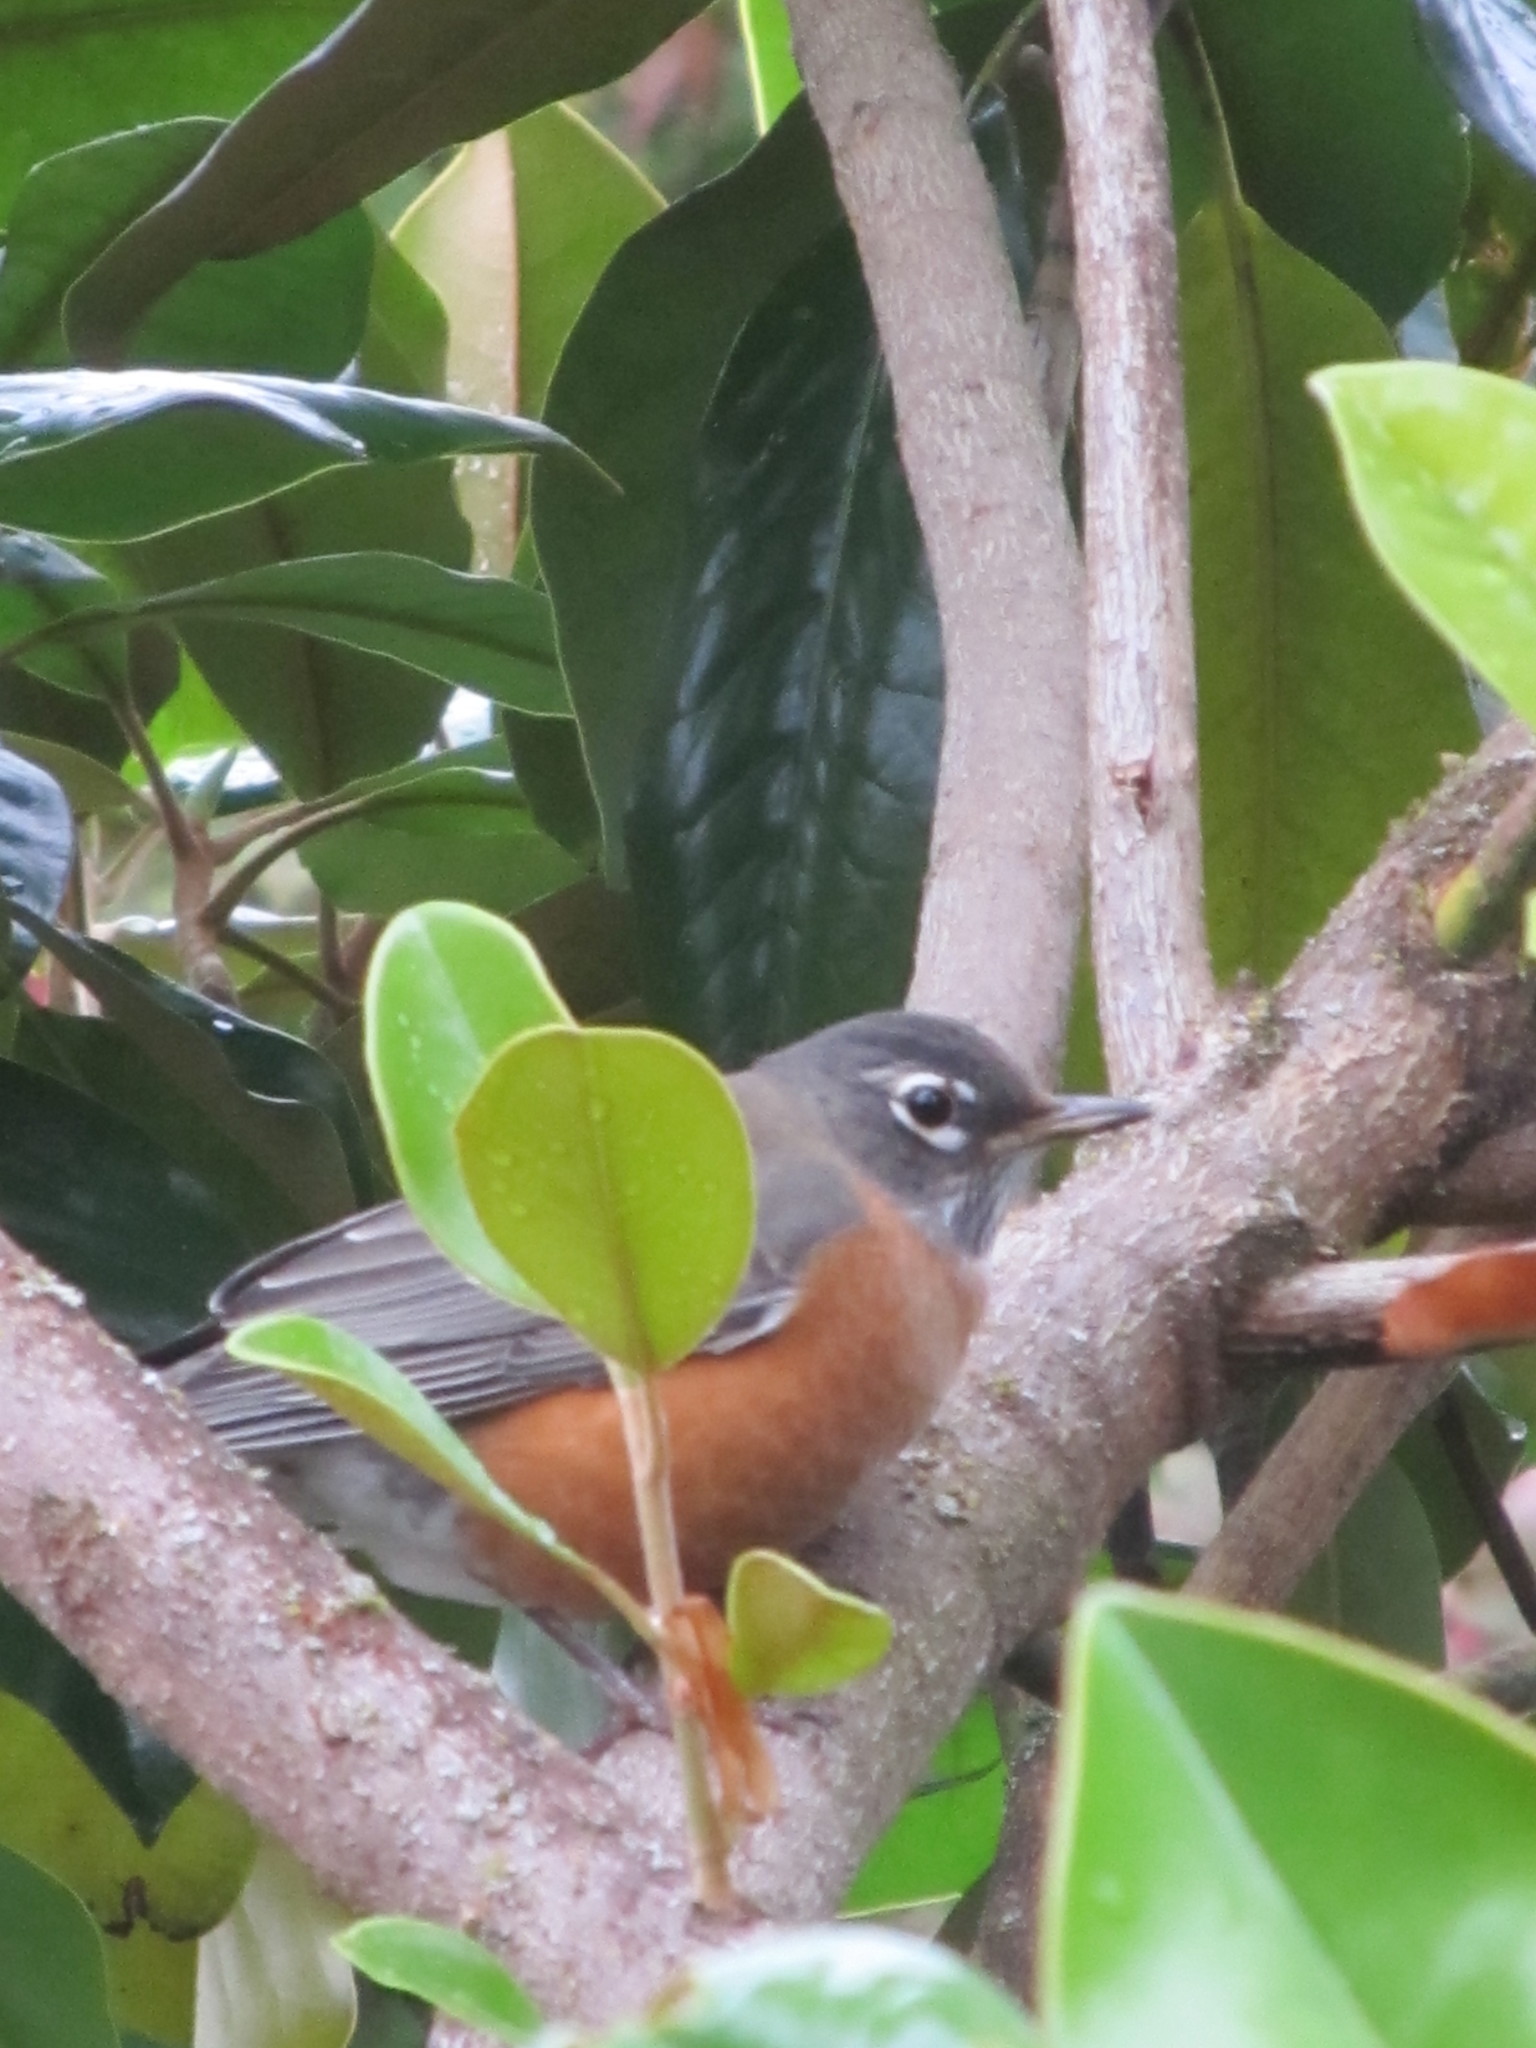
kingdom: Animalia
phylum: Chordata
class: Aves
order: Passeriformes
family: Turdidae
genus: Turdus
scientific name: Turdus migratorius
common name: American robin
